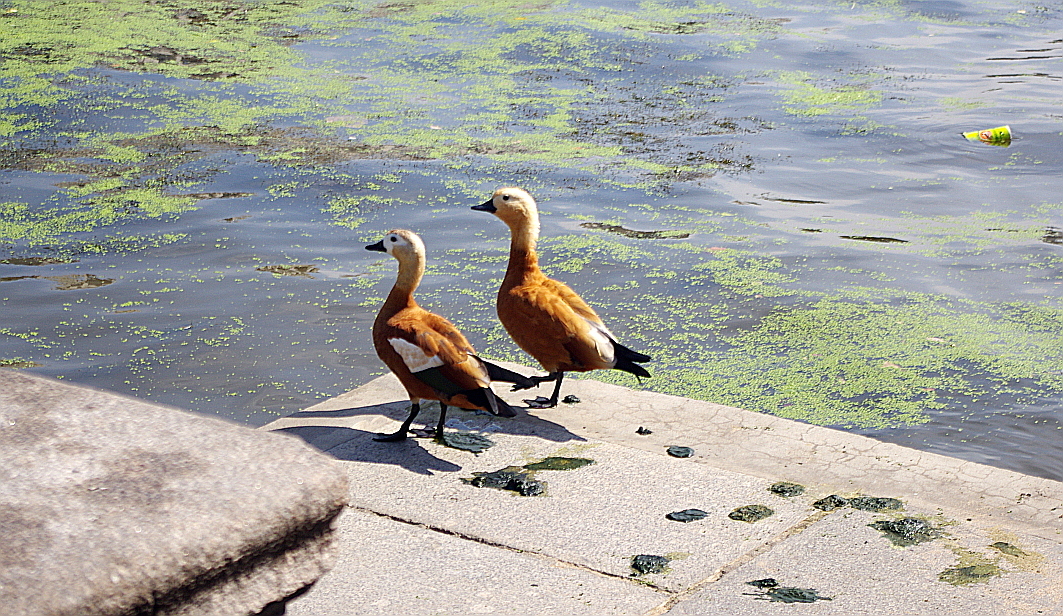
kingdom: Animalia
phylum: Chordata
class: Aves
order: Anseriformes
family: Anatidae
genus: Tadorna
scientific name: Tadorna ferruginea
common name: Ruddy shelduck
